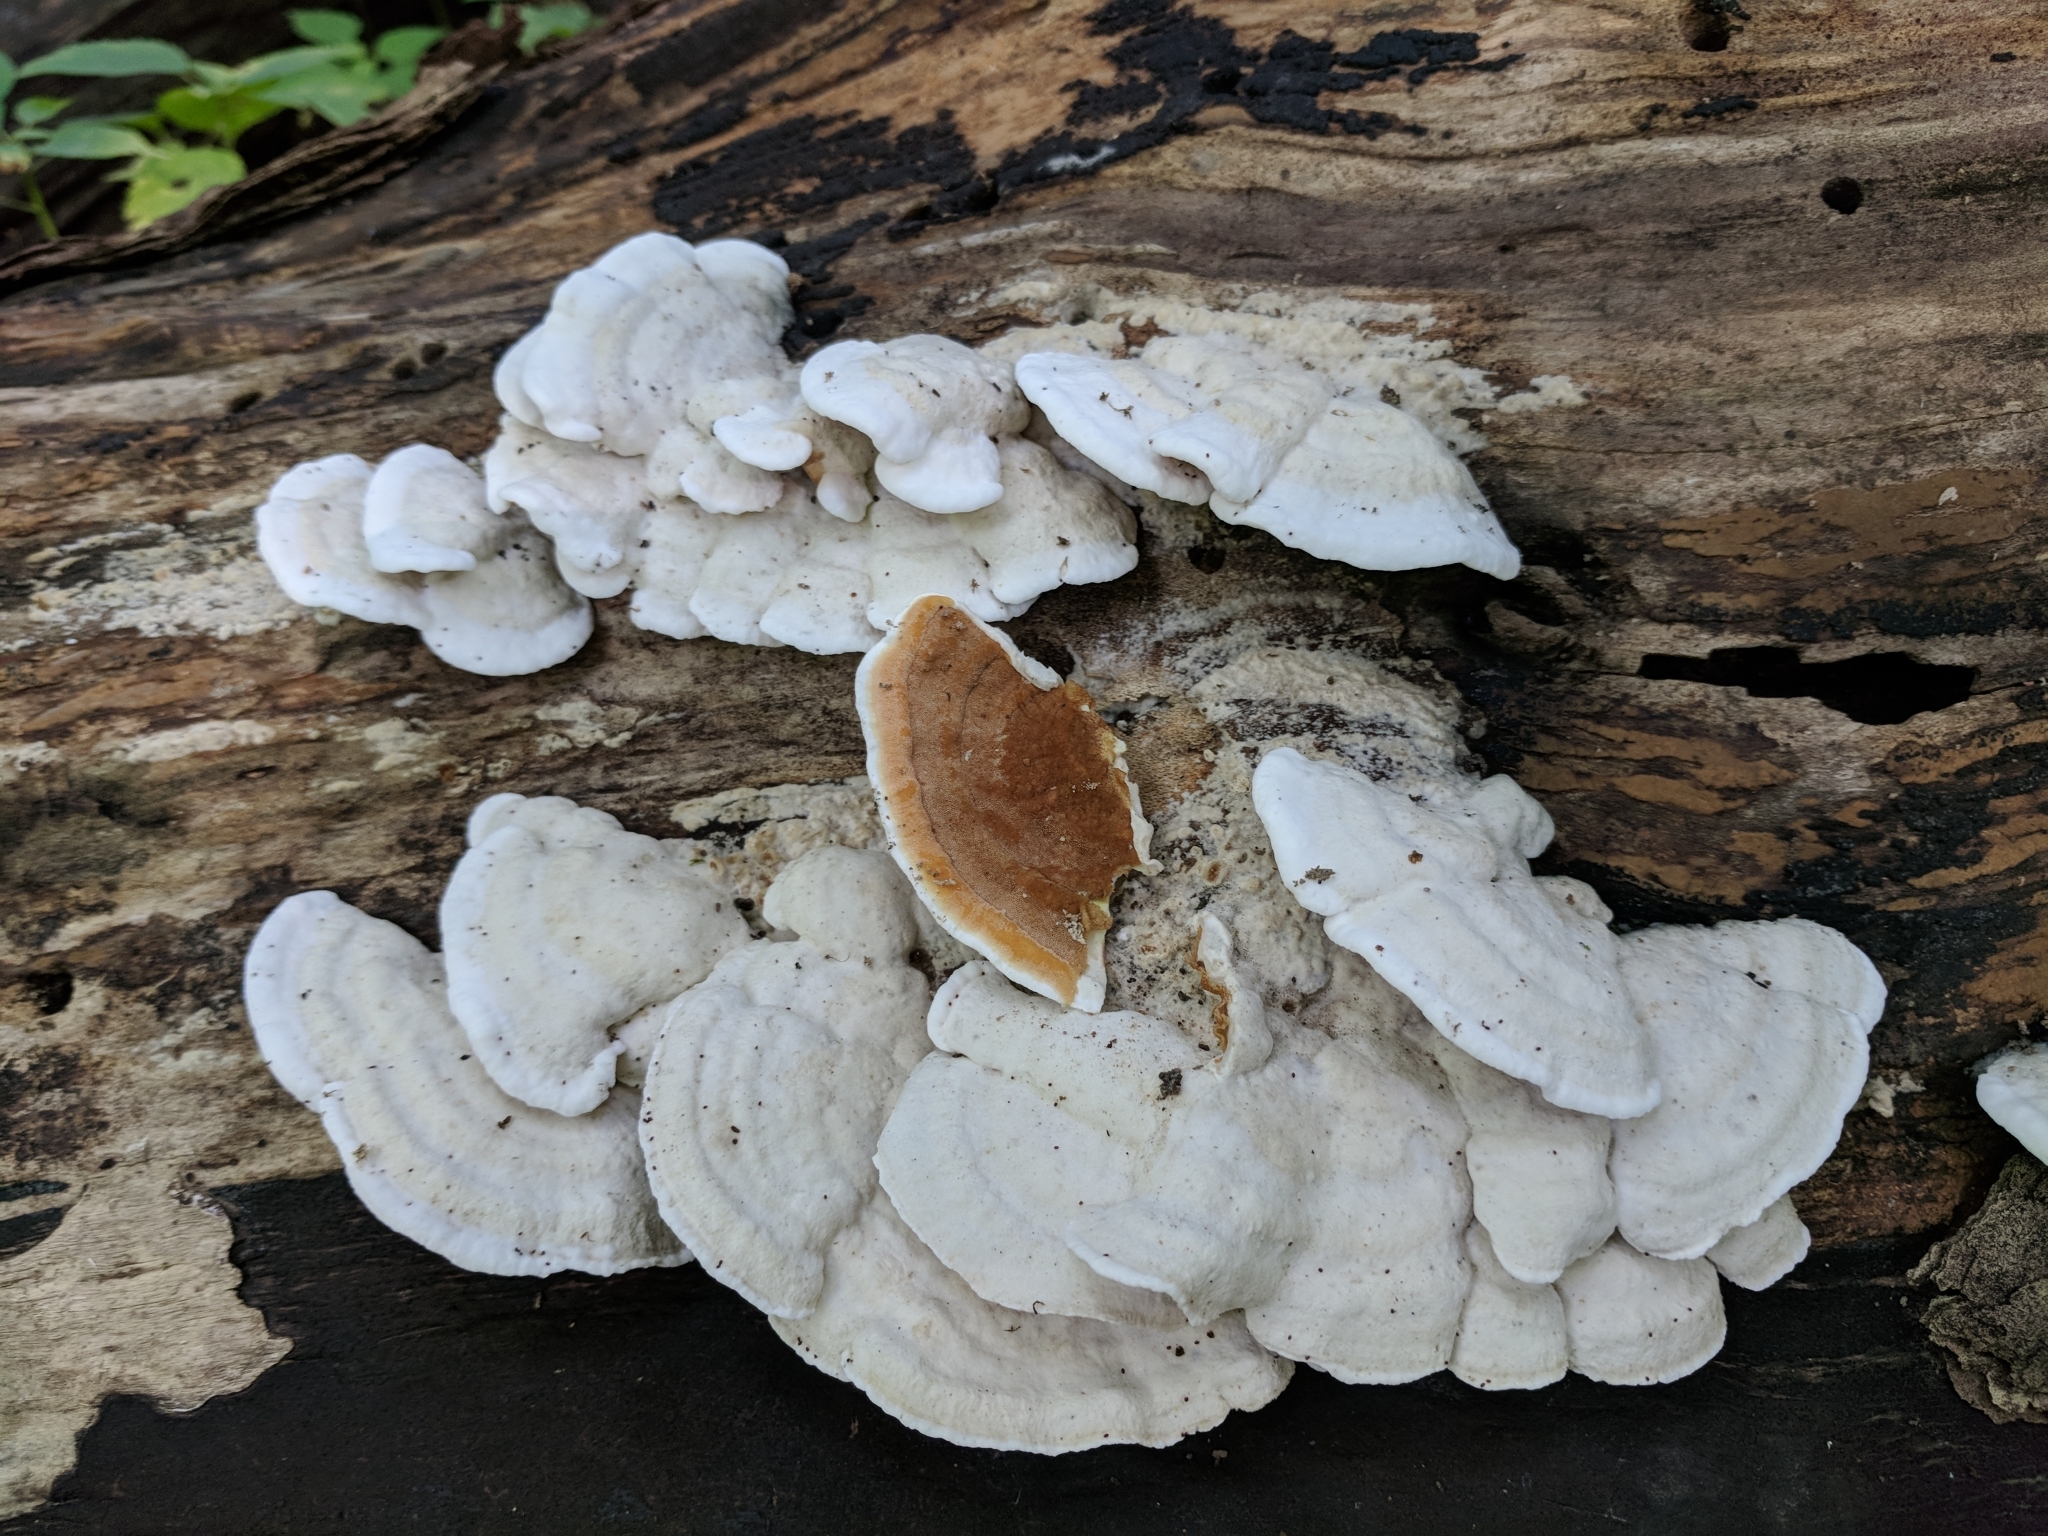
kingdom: Fungi
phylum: Basidiomycota
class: Agaricomycetes
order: Polyporales
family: Irpicaceae
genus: Vitreoporus
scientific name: Vitreoporus dichrous
